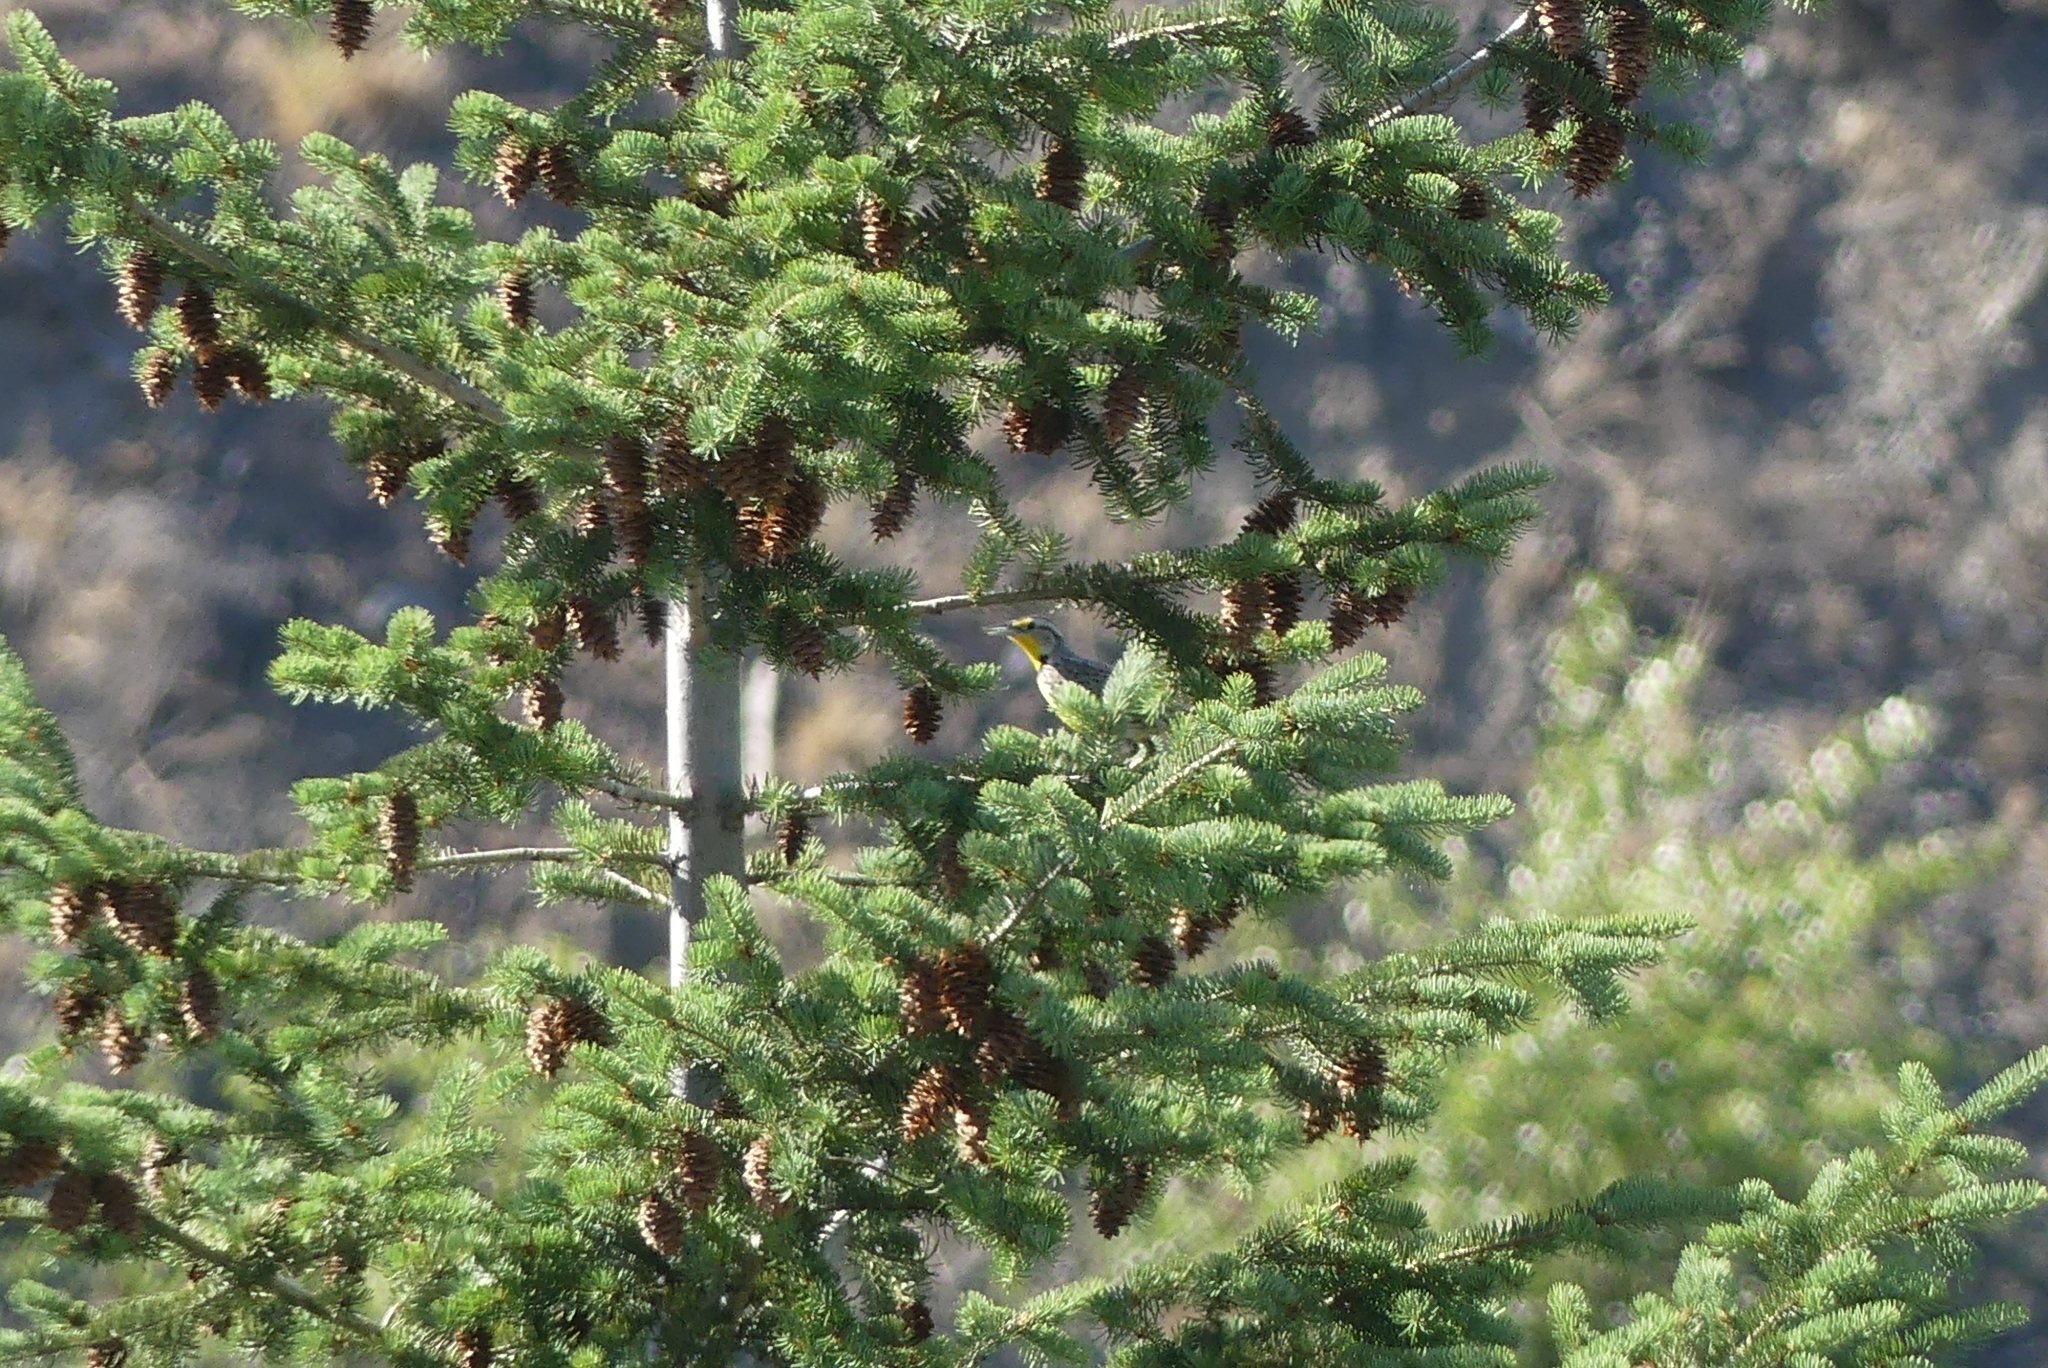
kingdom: Animalia
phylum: Chordata
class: Aves
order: Passeriformes
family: Icteridae
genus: Sturnella
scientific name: Sturnella neglecta
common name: Western meadowlark
